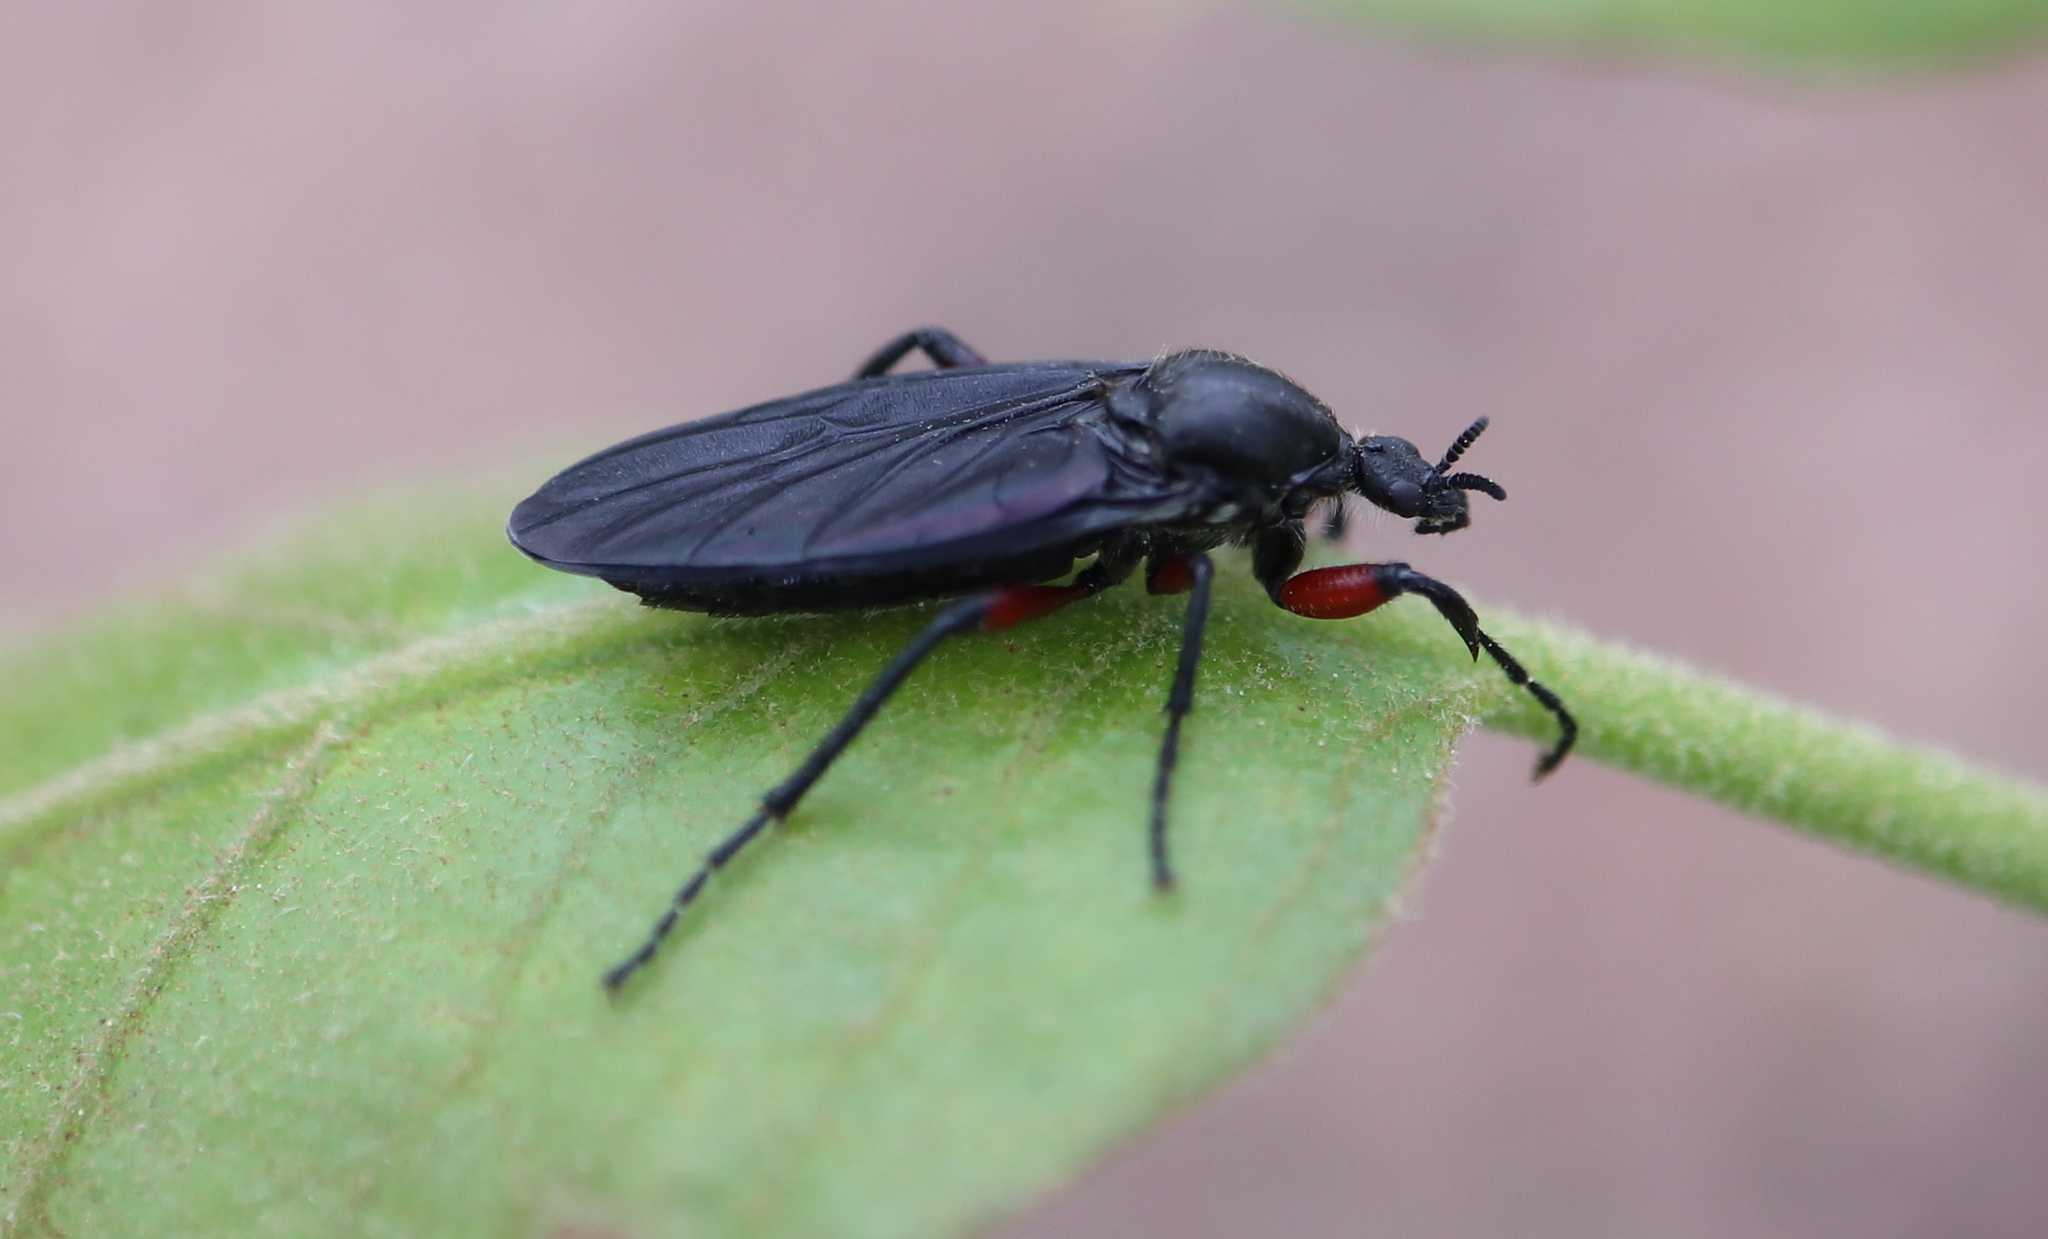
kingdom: Animalia
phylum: Arthropoda
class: Insecta
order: Diptera
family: Bibionidae
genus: Bibio
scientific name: Bibio femoratus
